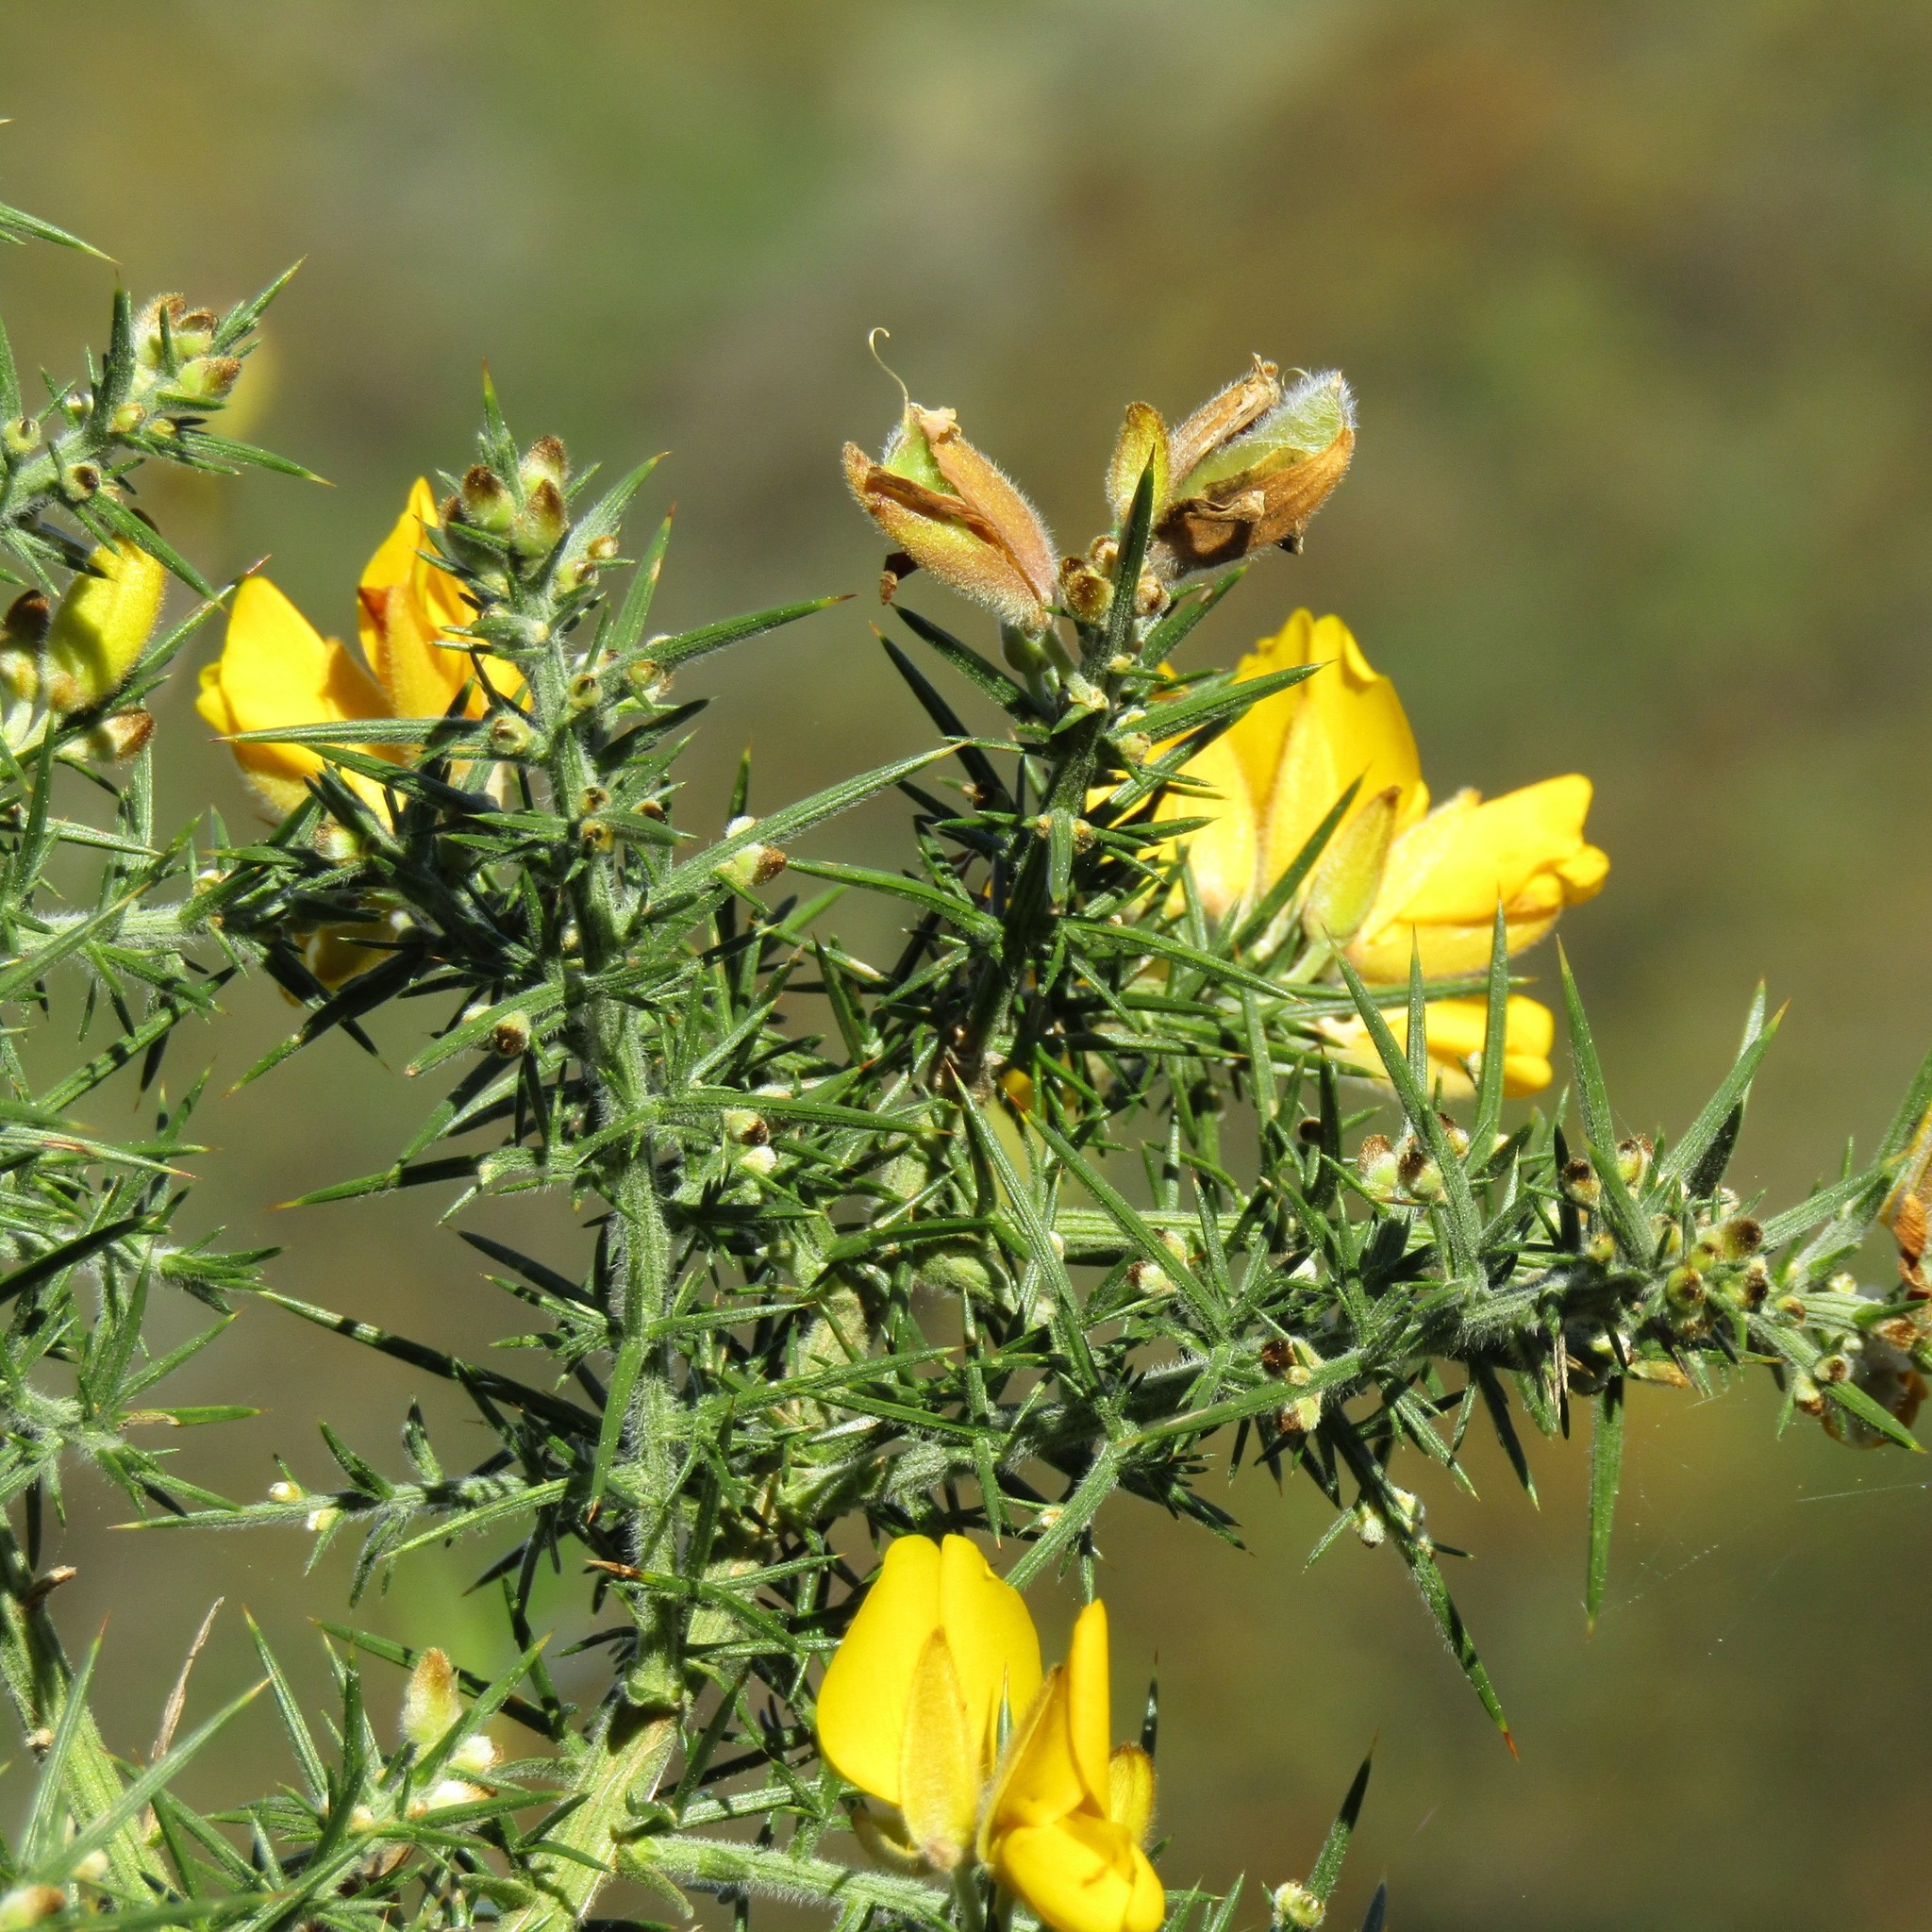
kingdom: Plantae
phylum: Tracheophyta
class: Magnoliopsida
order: Fabales
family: Fabaceae
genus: Ulex
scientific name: Ulex europaeus
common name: Common gorse
